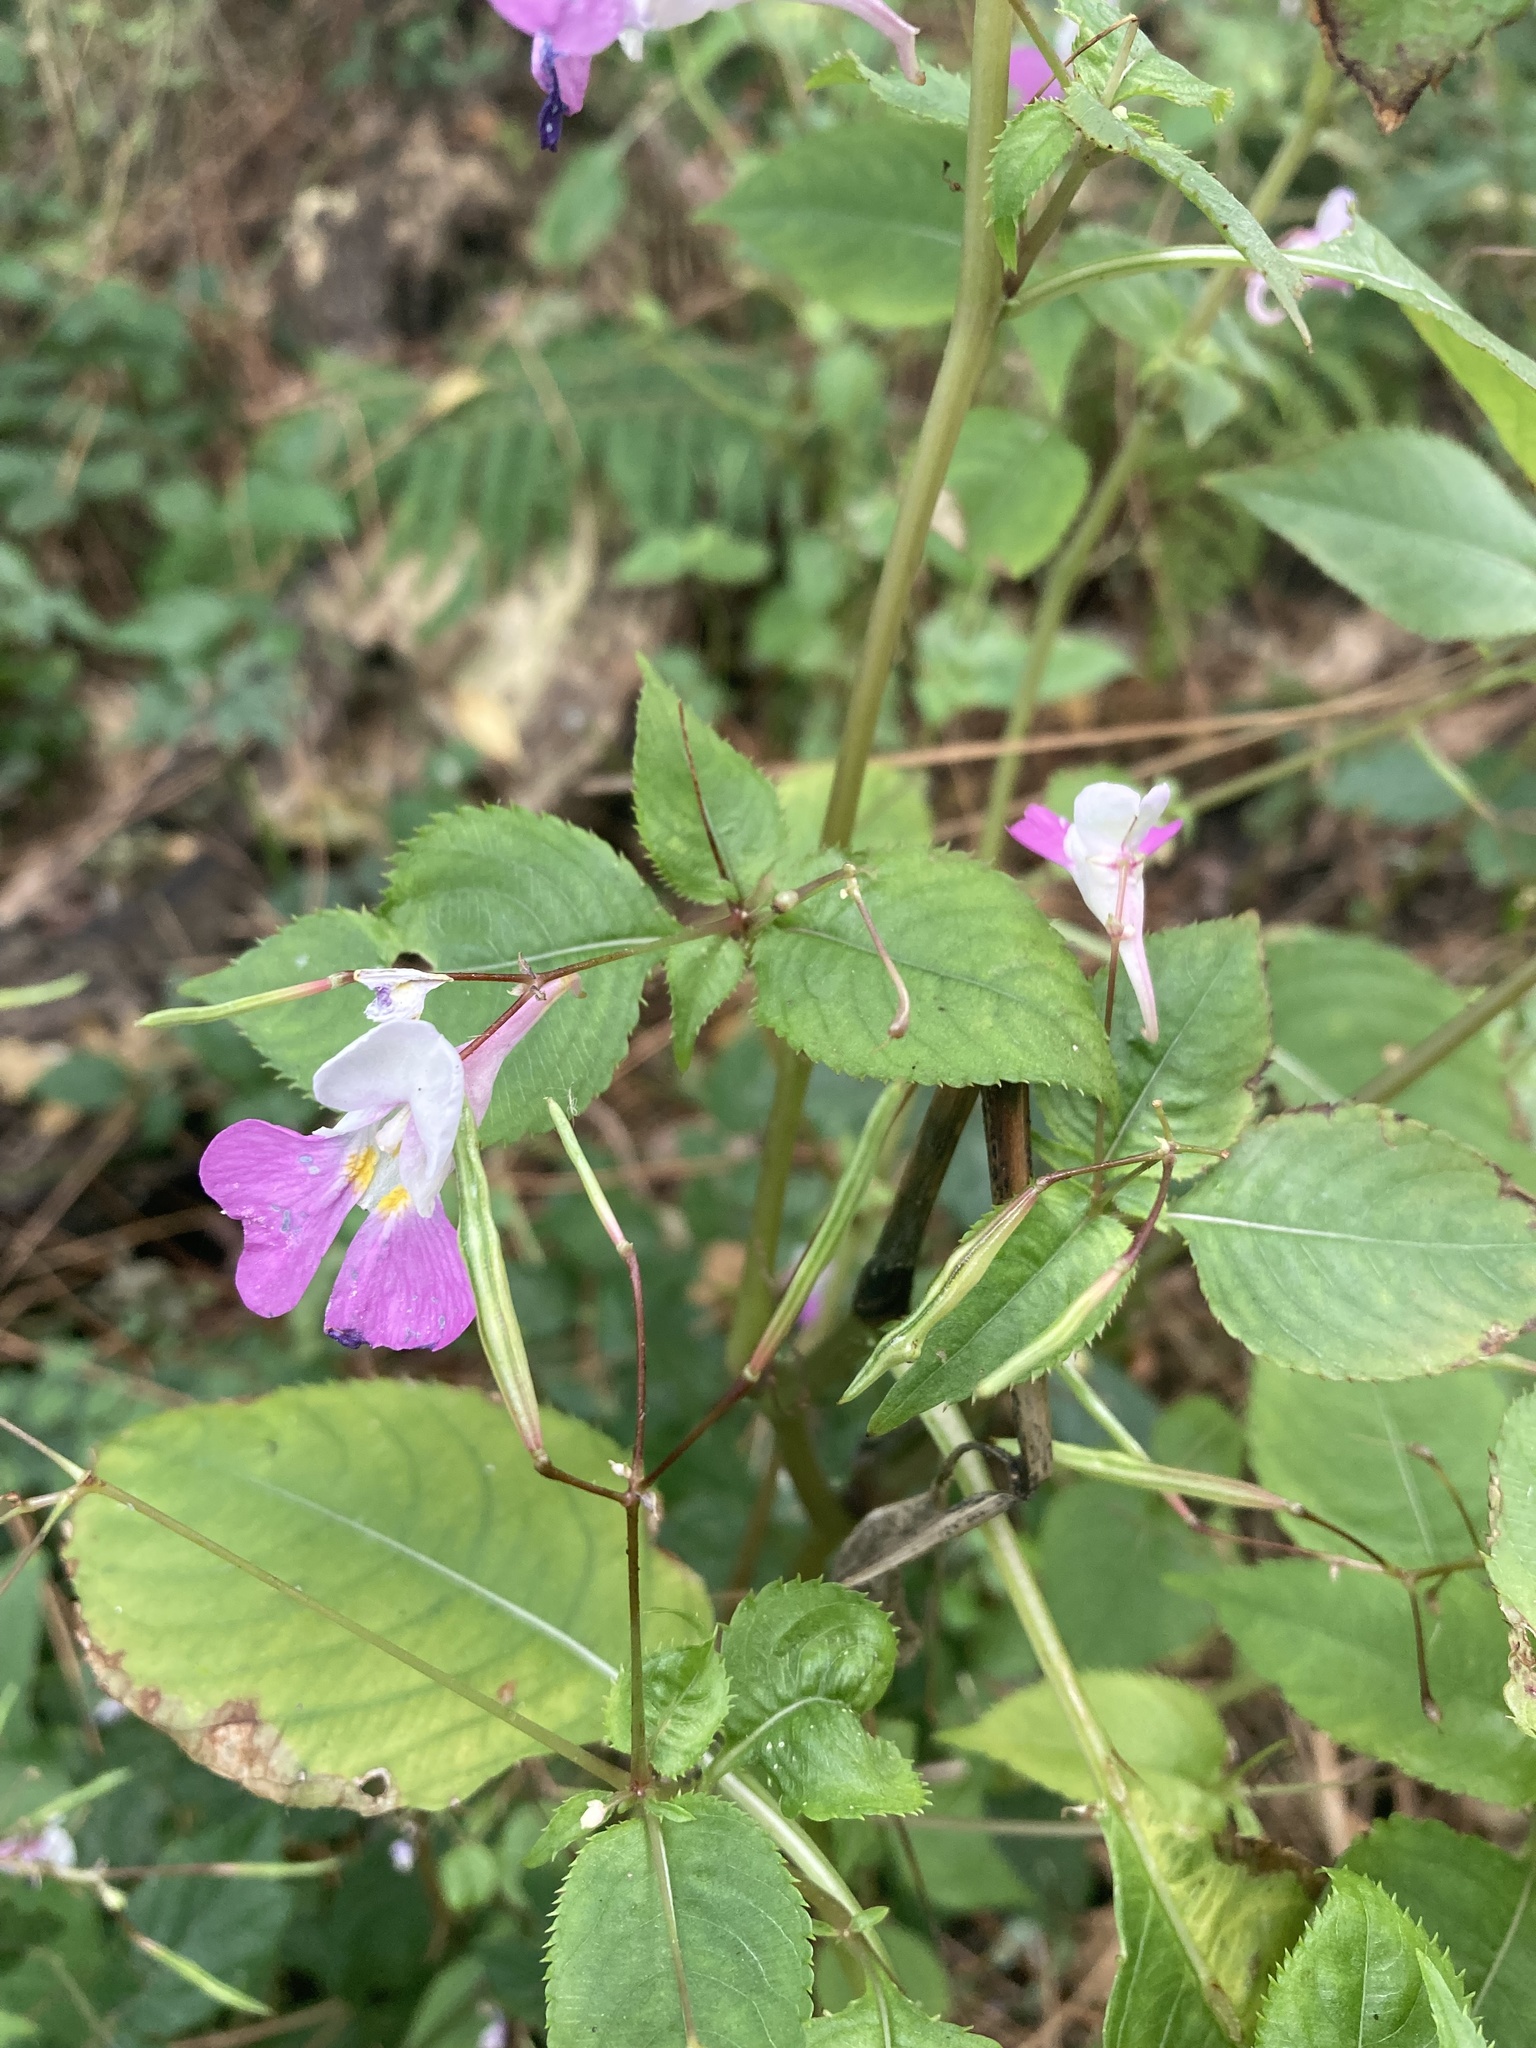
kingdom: Plantae
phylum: Tracheophyta
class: Magnoliopsida
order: Ericales
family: Balsaminaceae
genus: Impatiens
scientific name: Impatiens balfourii
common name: Balfour's touch-me-not
